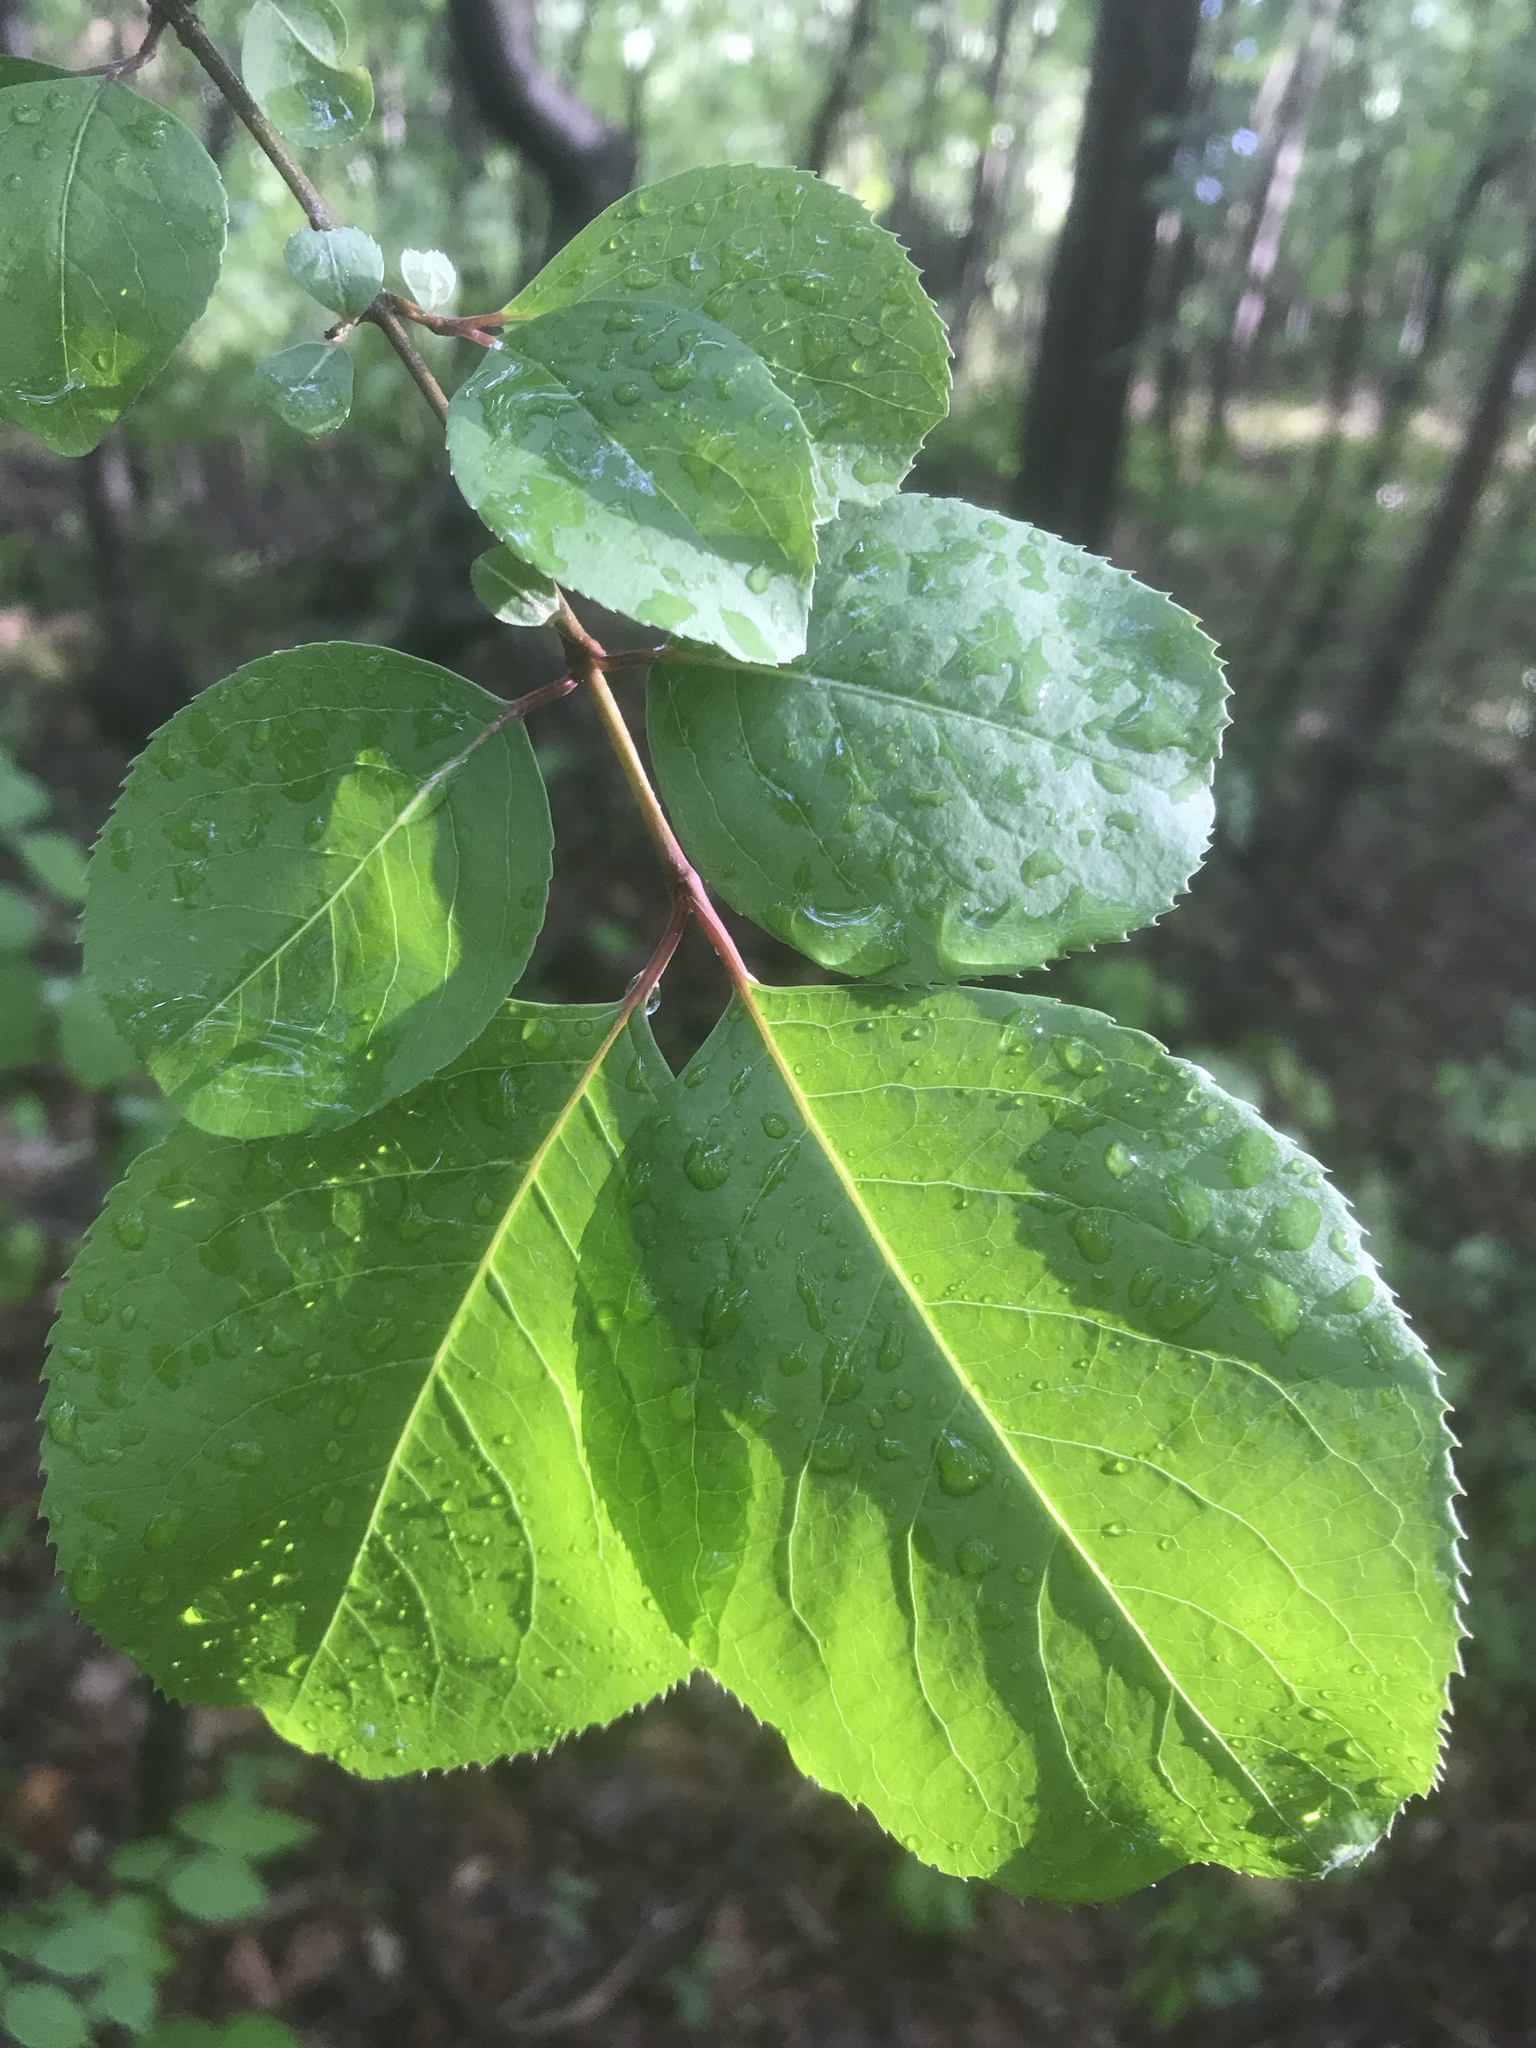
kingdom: Plantae
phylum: Tracheophyta
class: Magnoliopsida
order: Dipsacales
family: Viburnaceae
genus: Viburnum
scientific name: Viburnum rufidulum
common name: Blue haw
